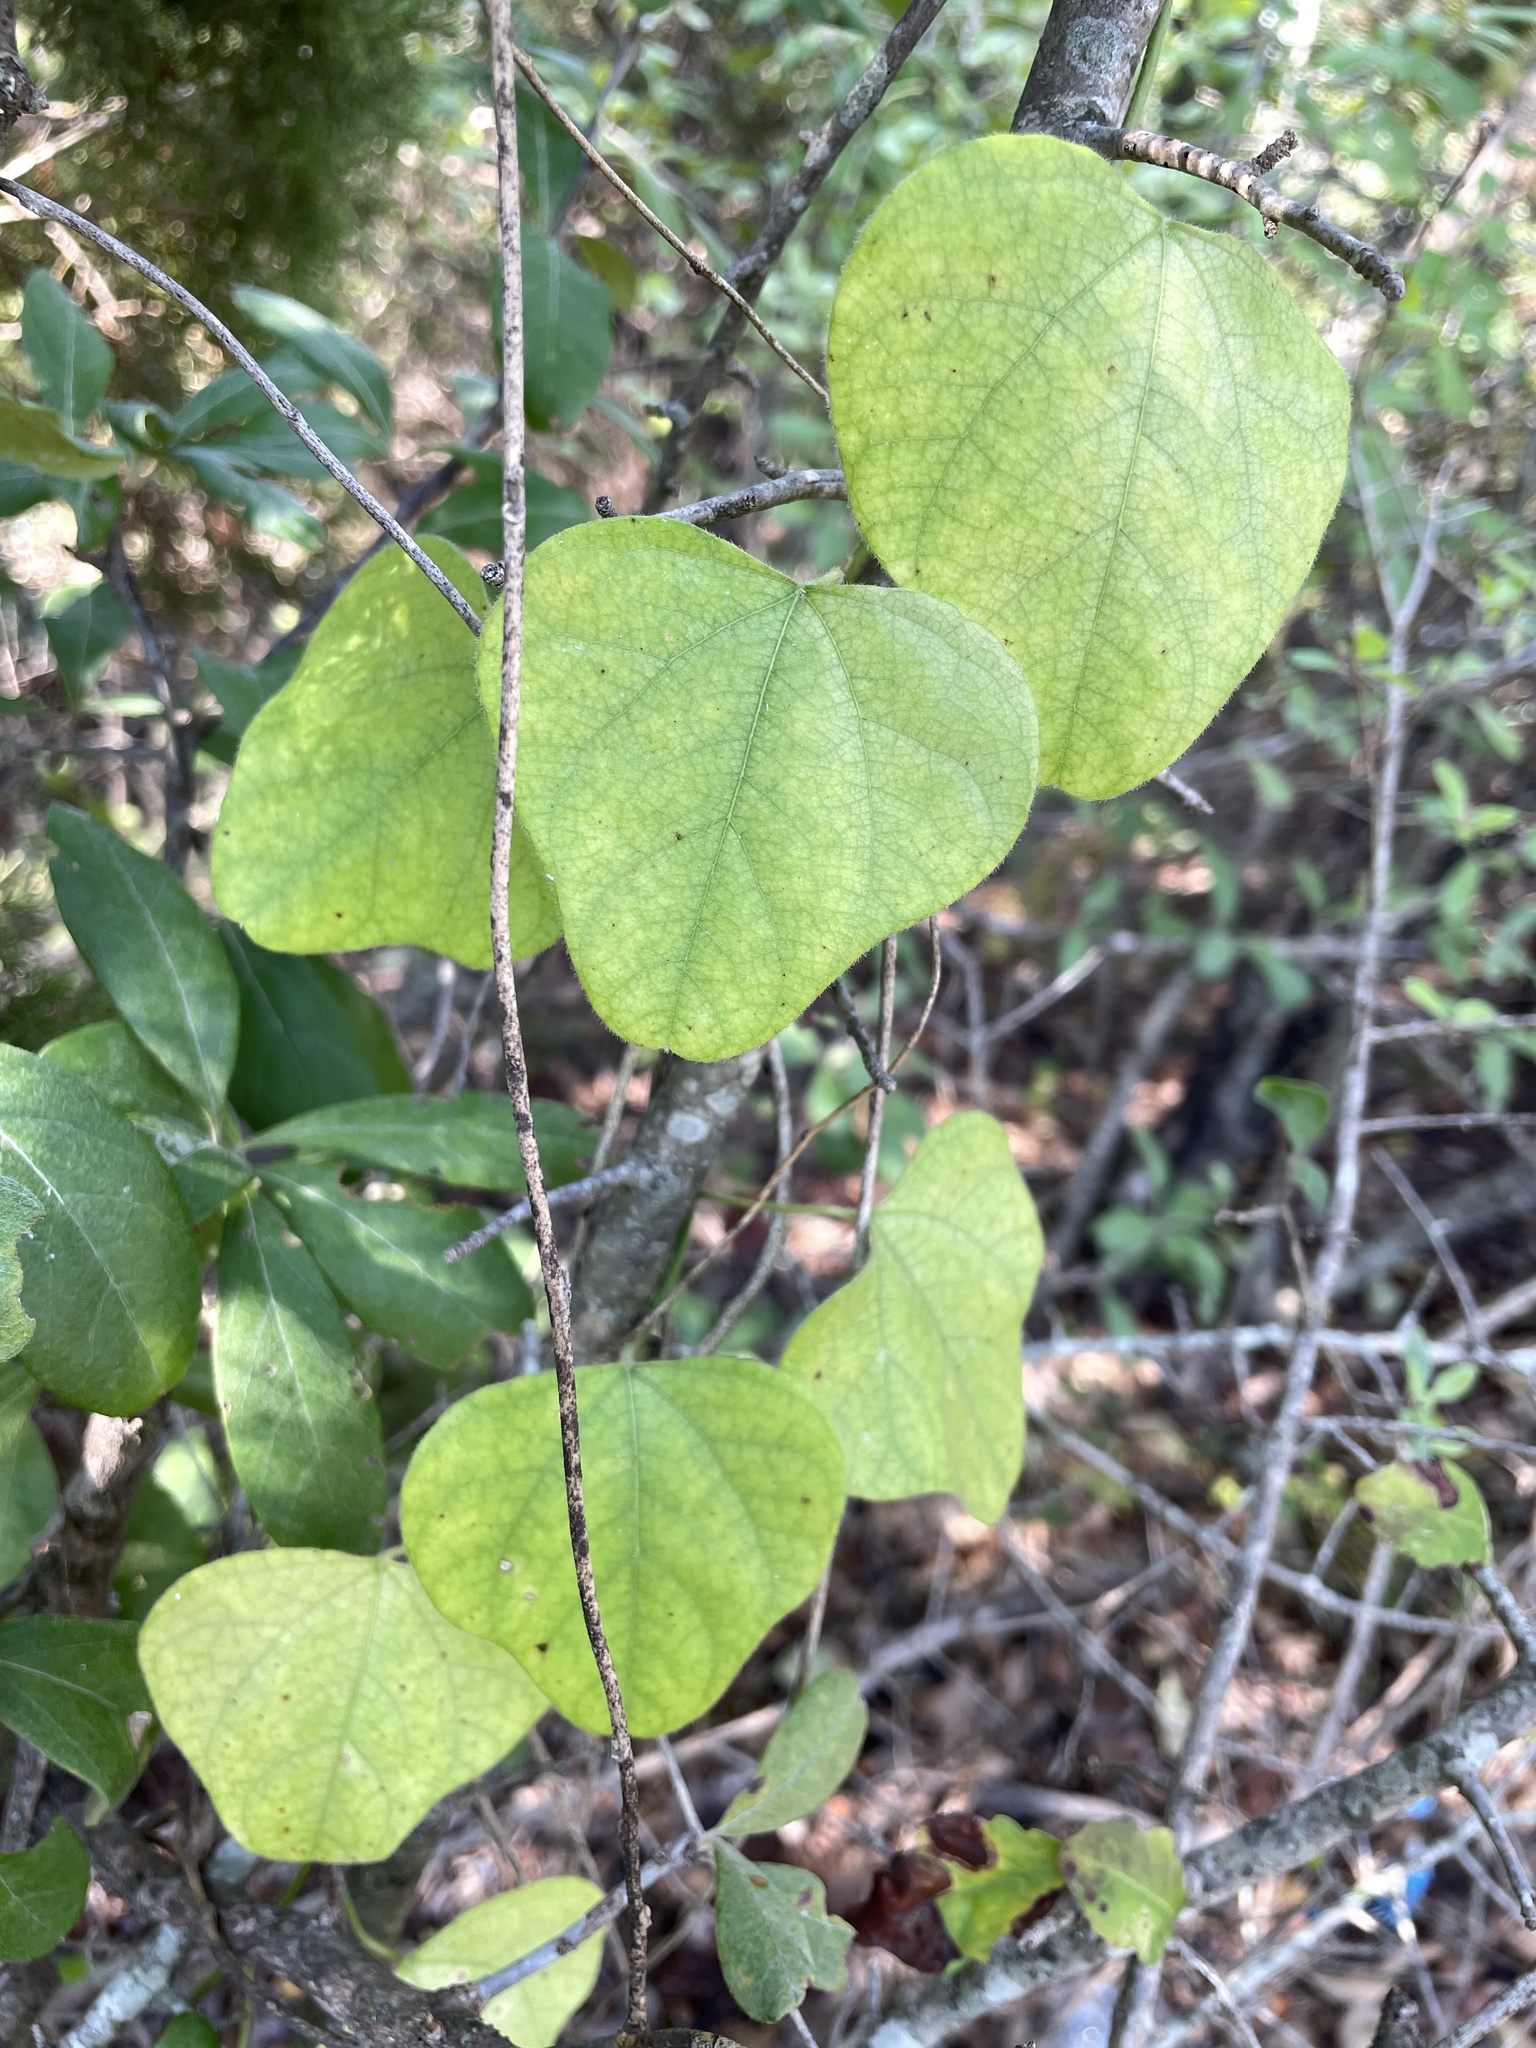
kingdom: Plantae
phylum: Tracheophyta
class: Magnoliopsida
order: Ranunculales
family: Menispermaceae
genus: Cocculus
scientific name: Cocculus carolinus
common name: Carolina moonseed
